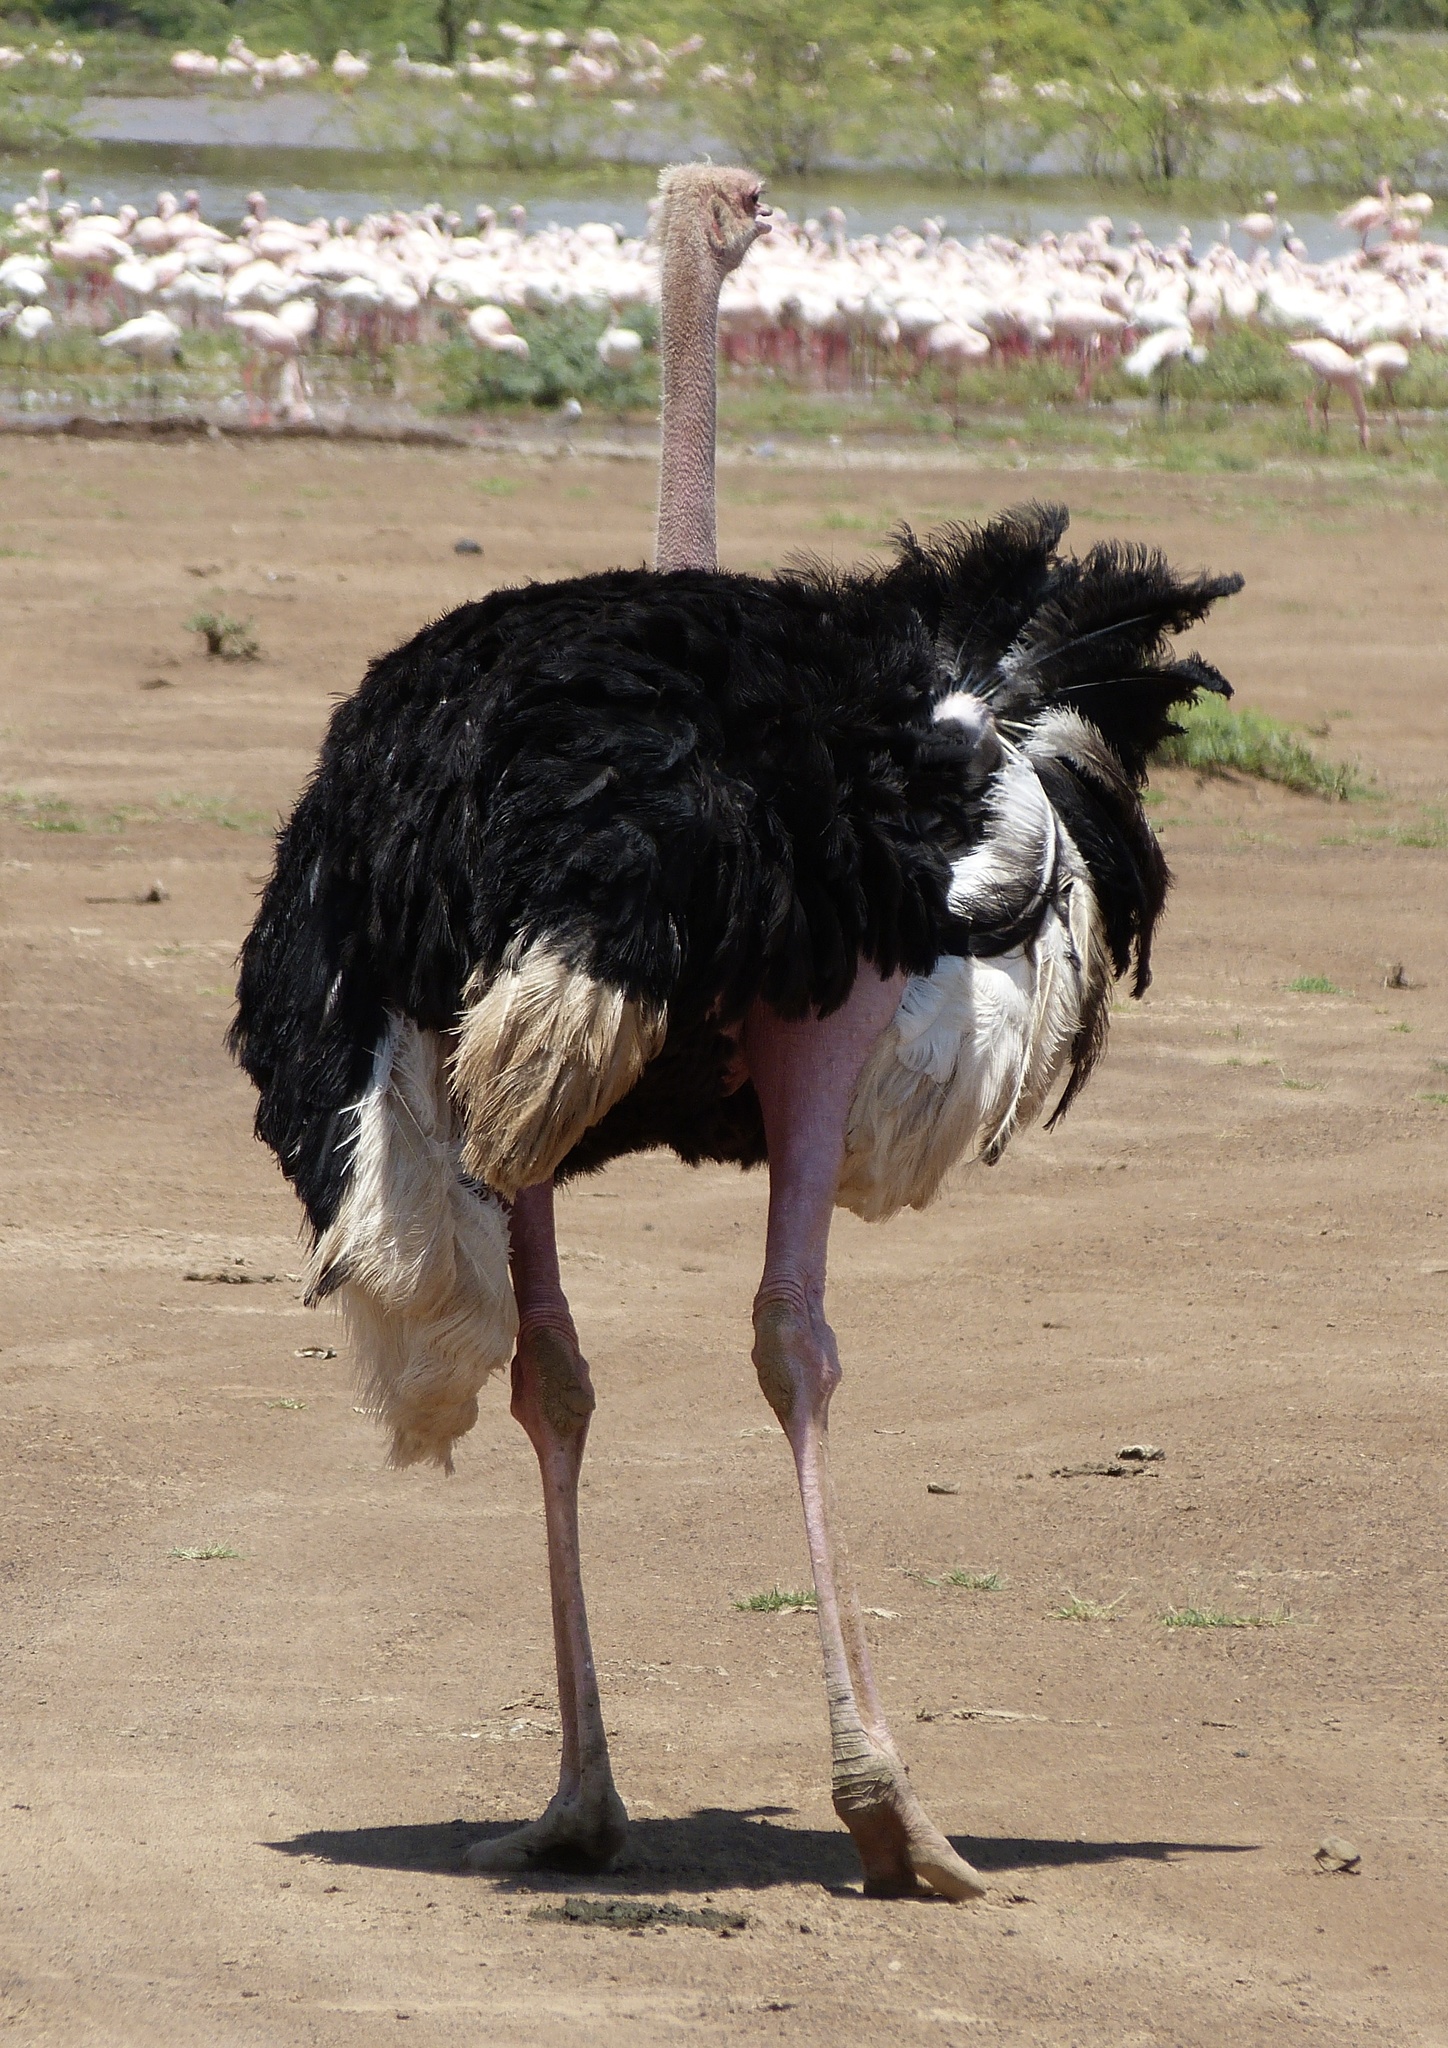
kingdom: Animalia
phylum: Chordata
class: Aves
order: Struthioniformes
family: Struthionidae
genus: Struthio
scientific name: Struthio camelus
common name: Common ostrich
